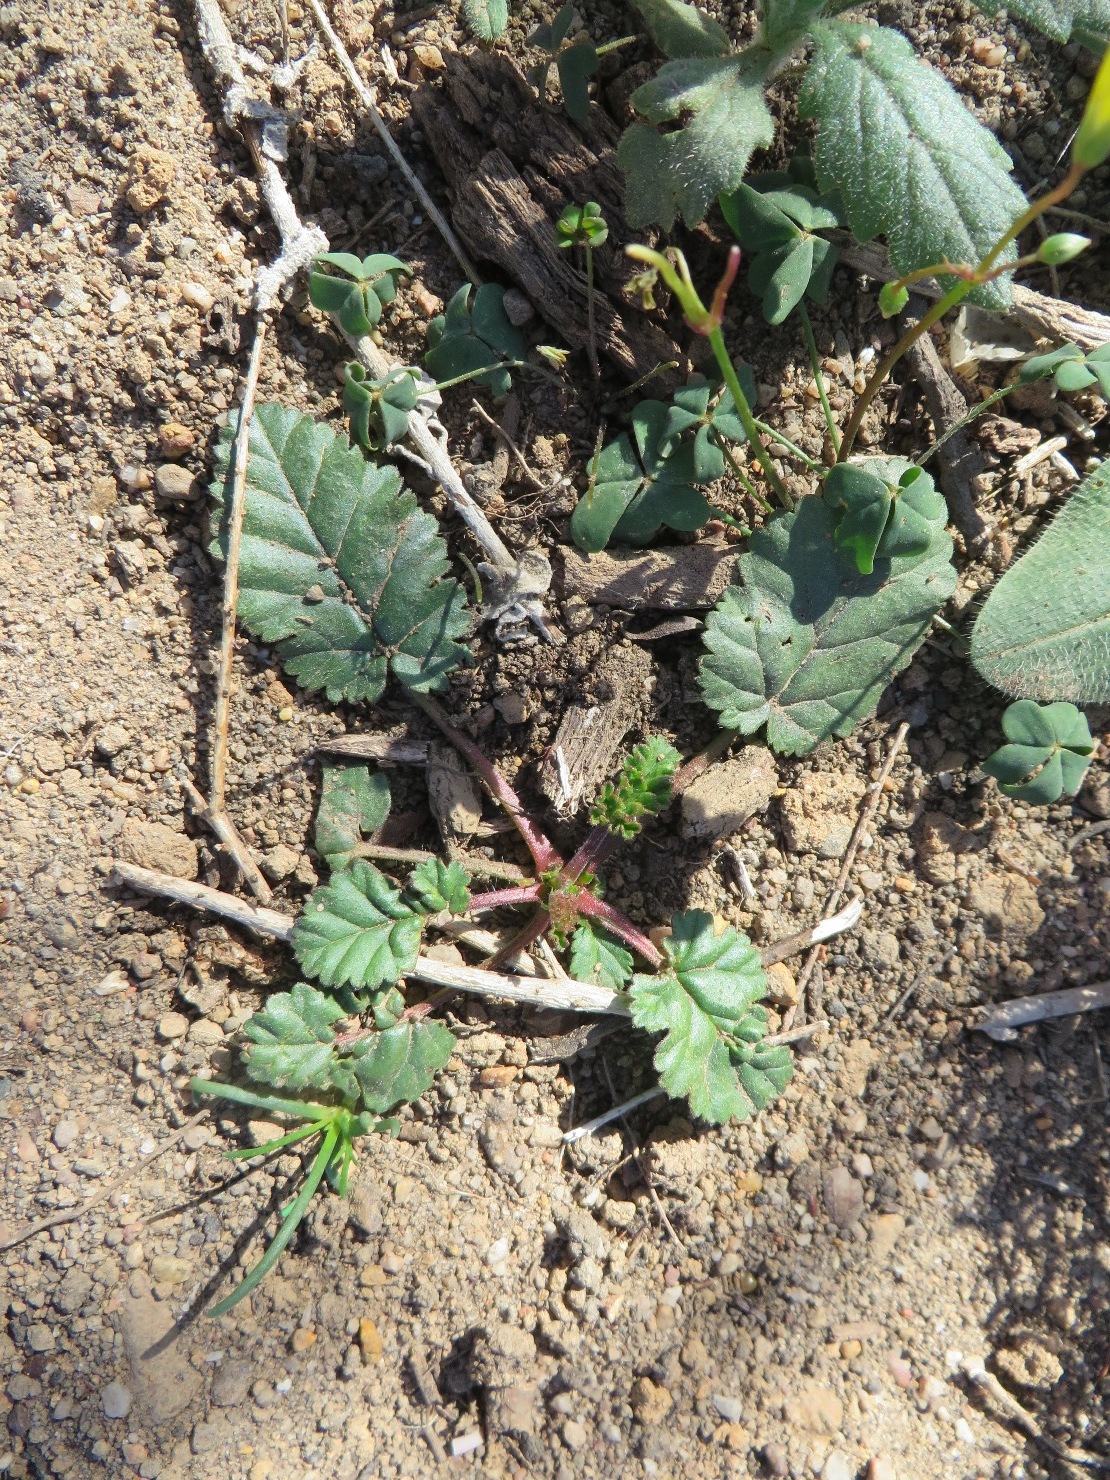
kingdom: Plantae
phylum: Tracheophyta
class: Magnoliopsida
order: Geraniales
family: Geraniaceae
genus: Pelargonium
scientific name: Pelargonium althaeoides
